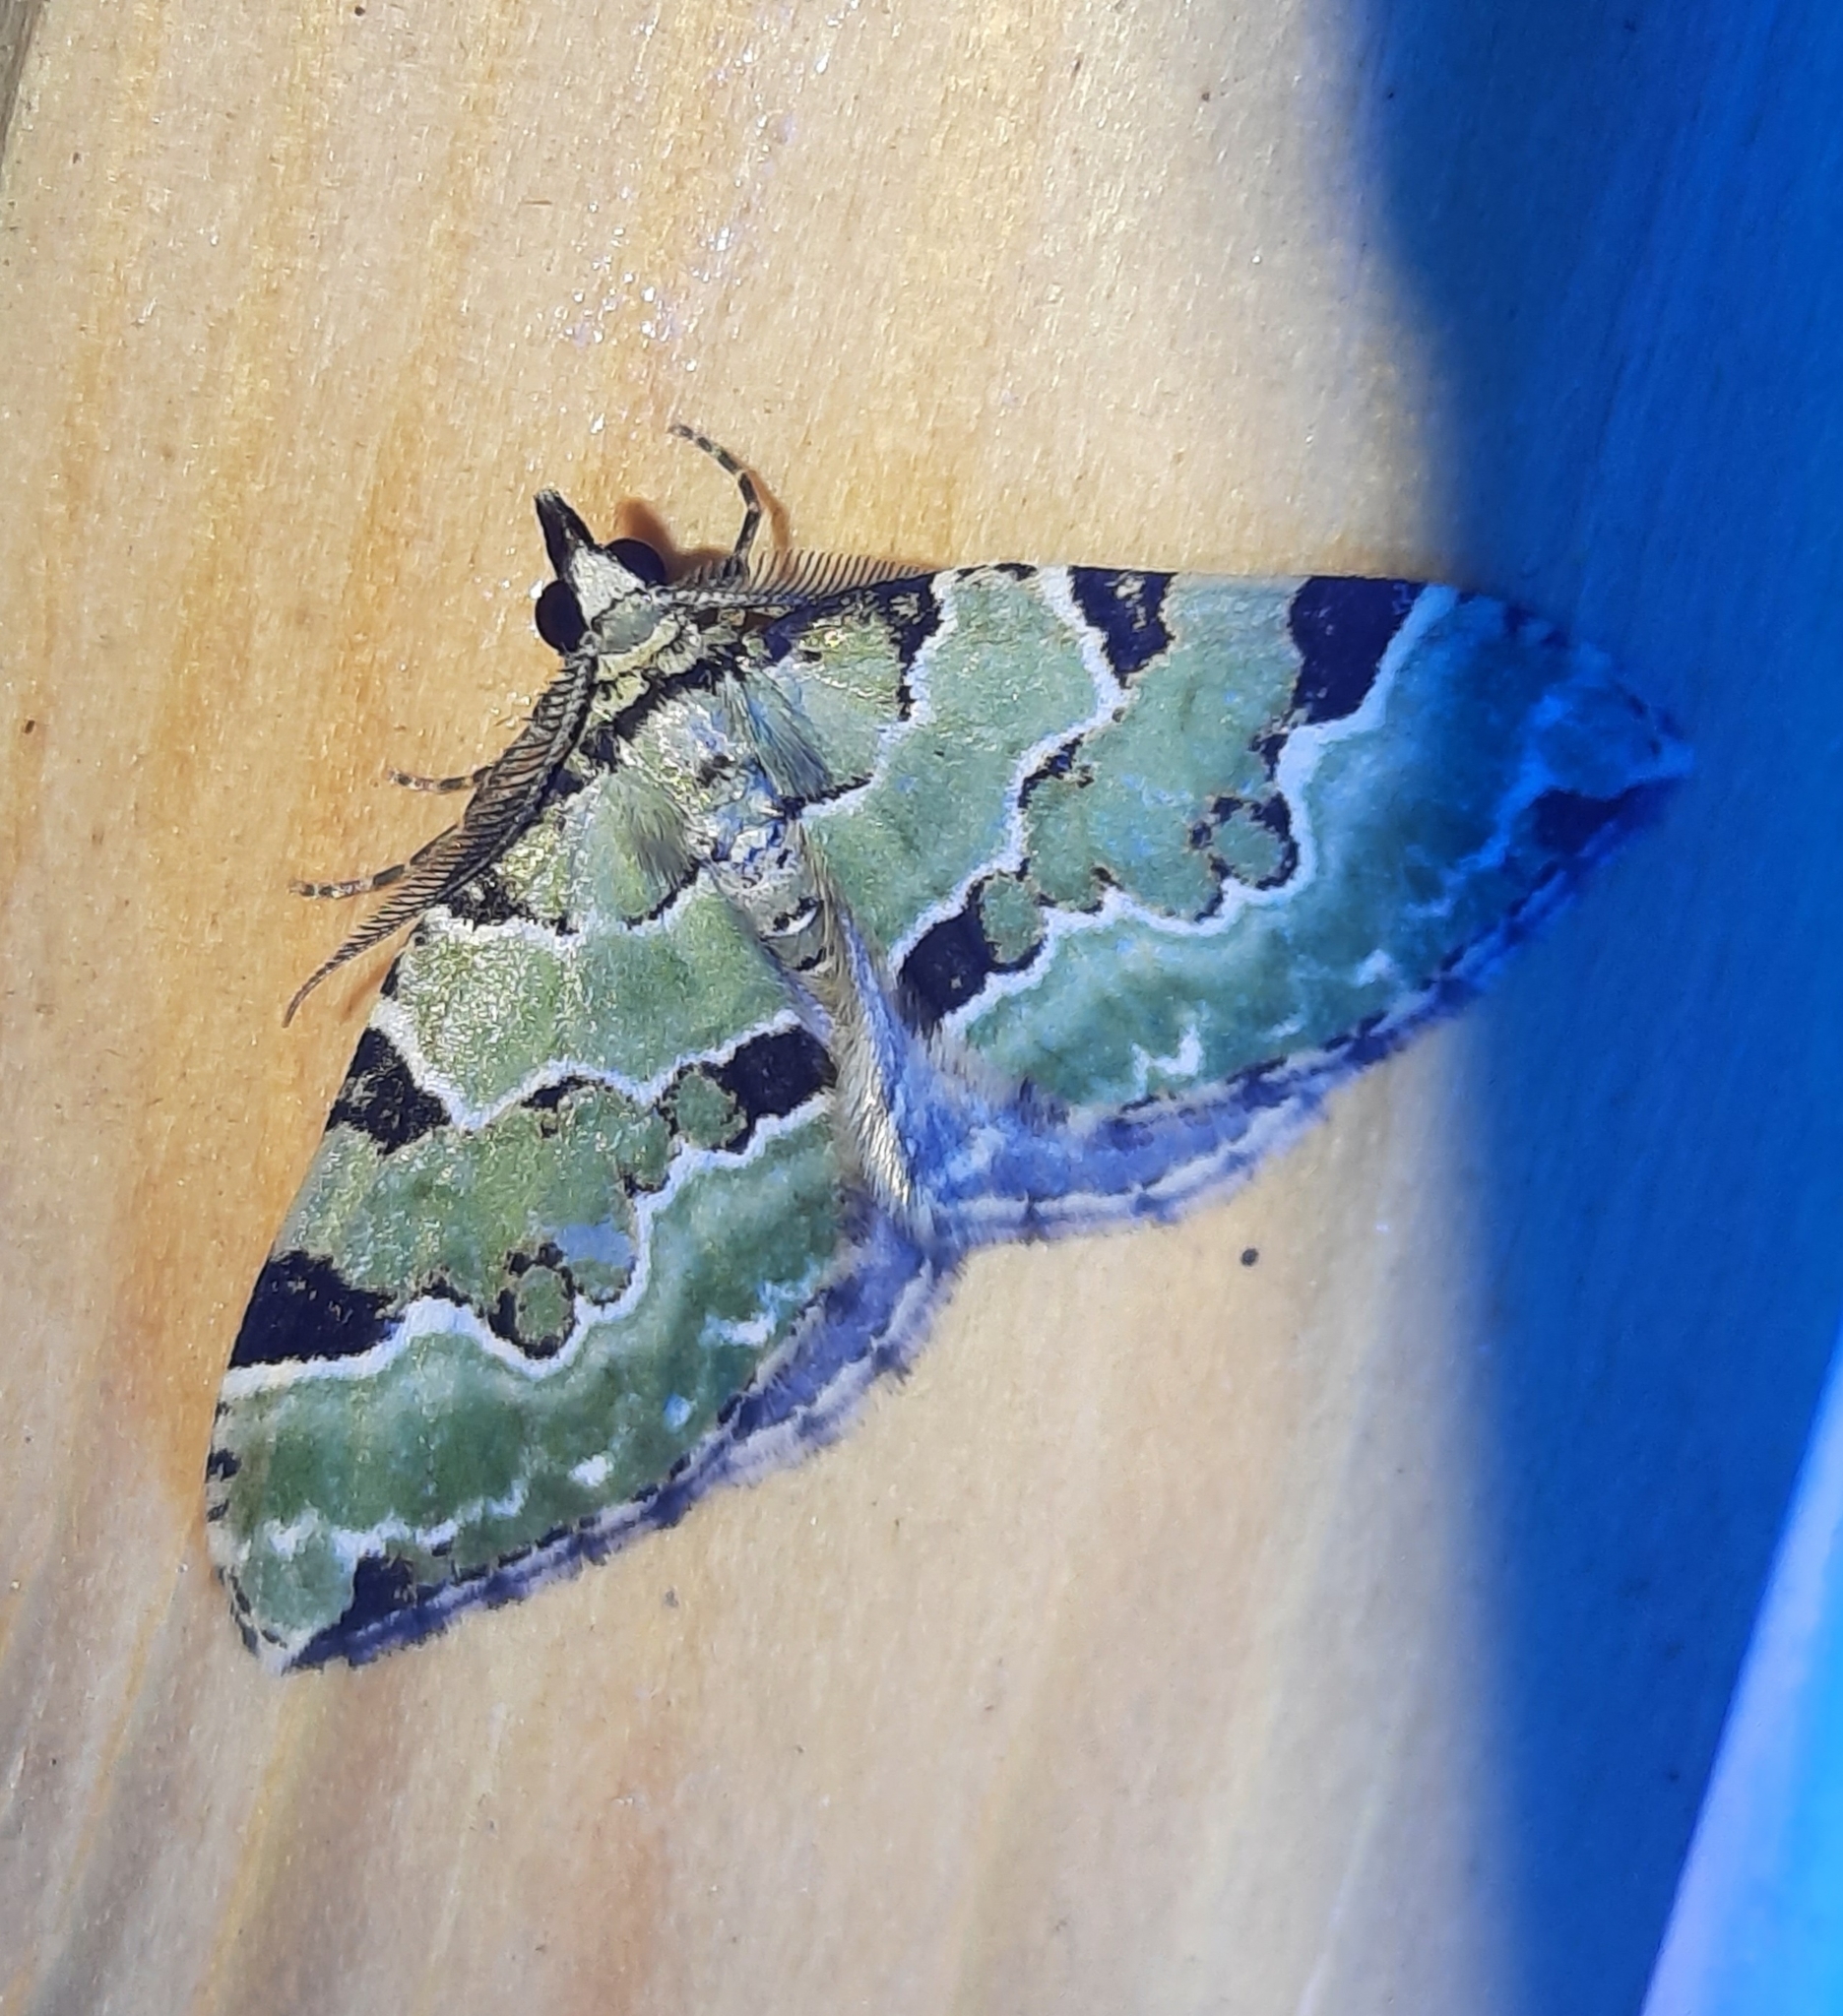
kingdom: Animalia
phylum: Arthropoda
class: Insecta
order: Lepidoptera
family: Geometridae
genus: Colostygia
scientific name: Colostygia pectinataria
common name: Green carpet
